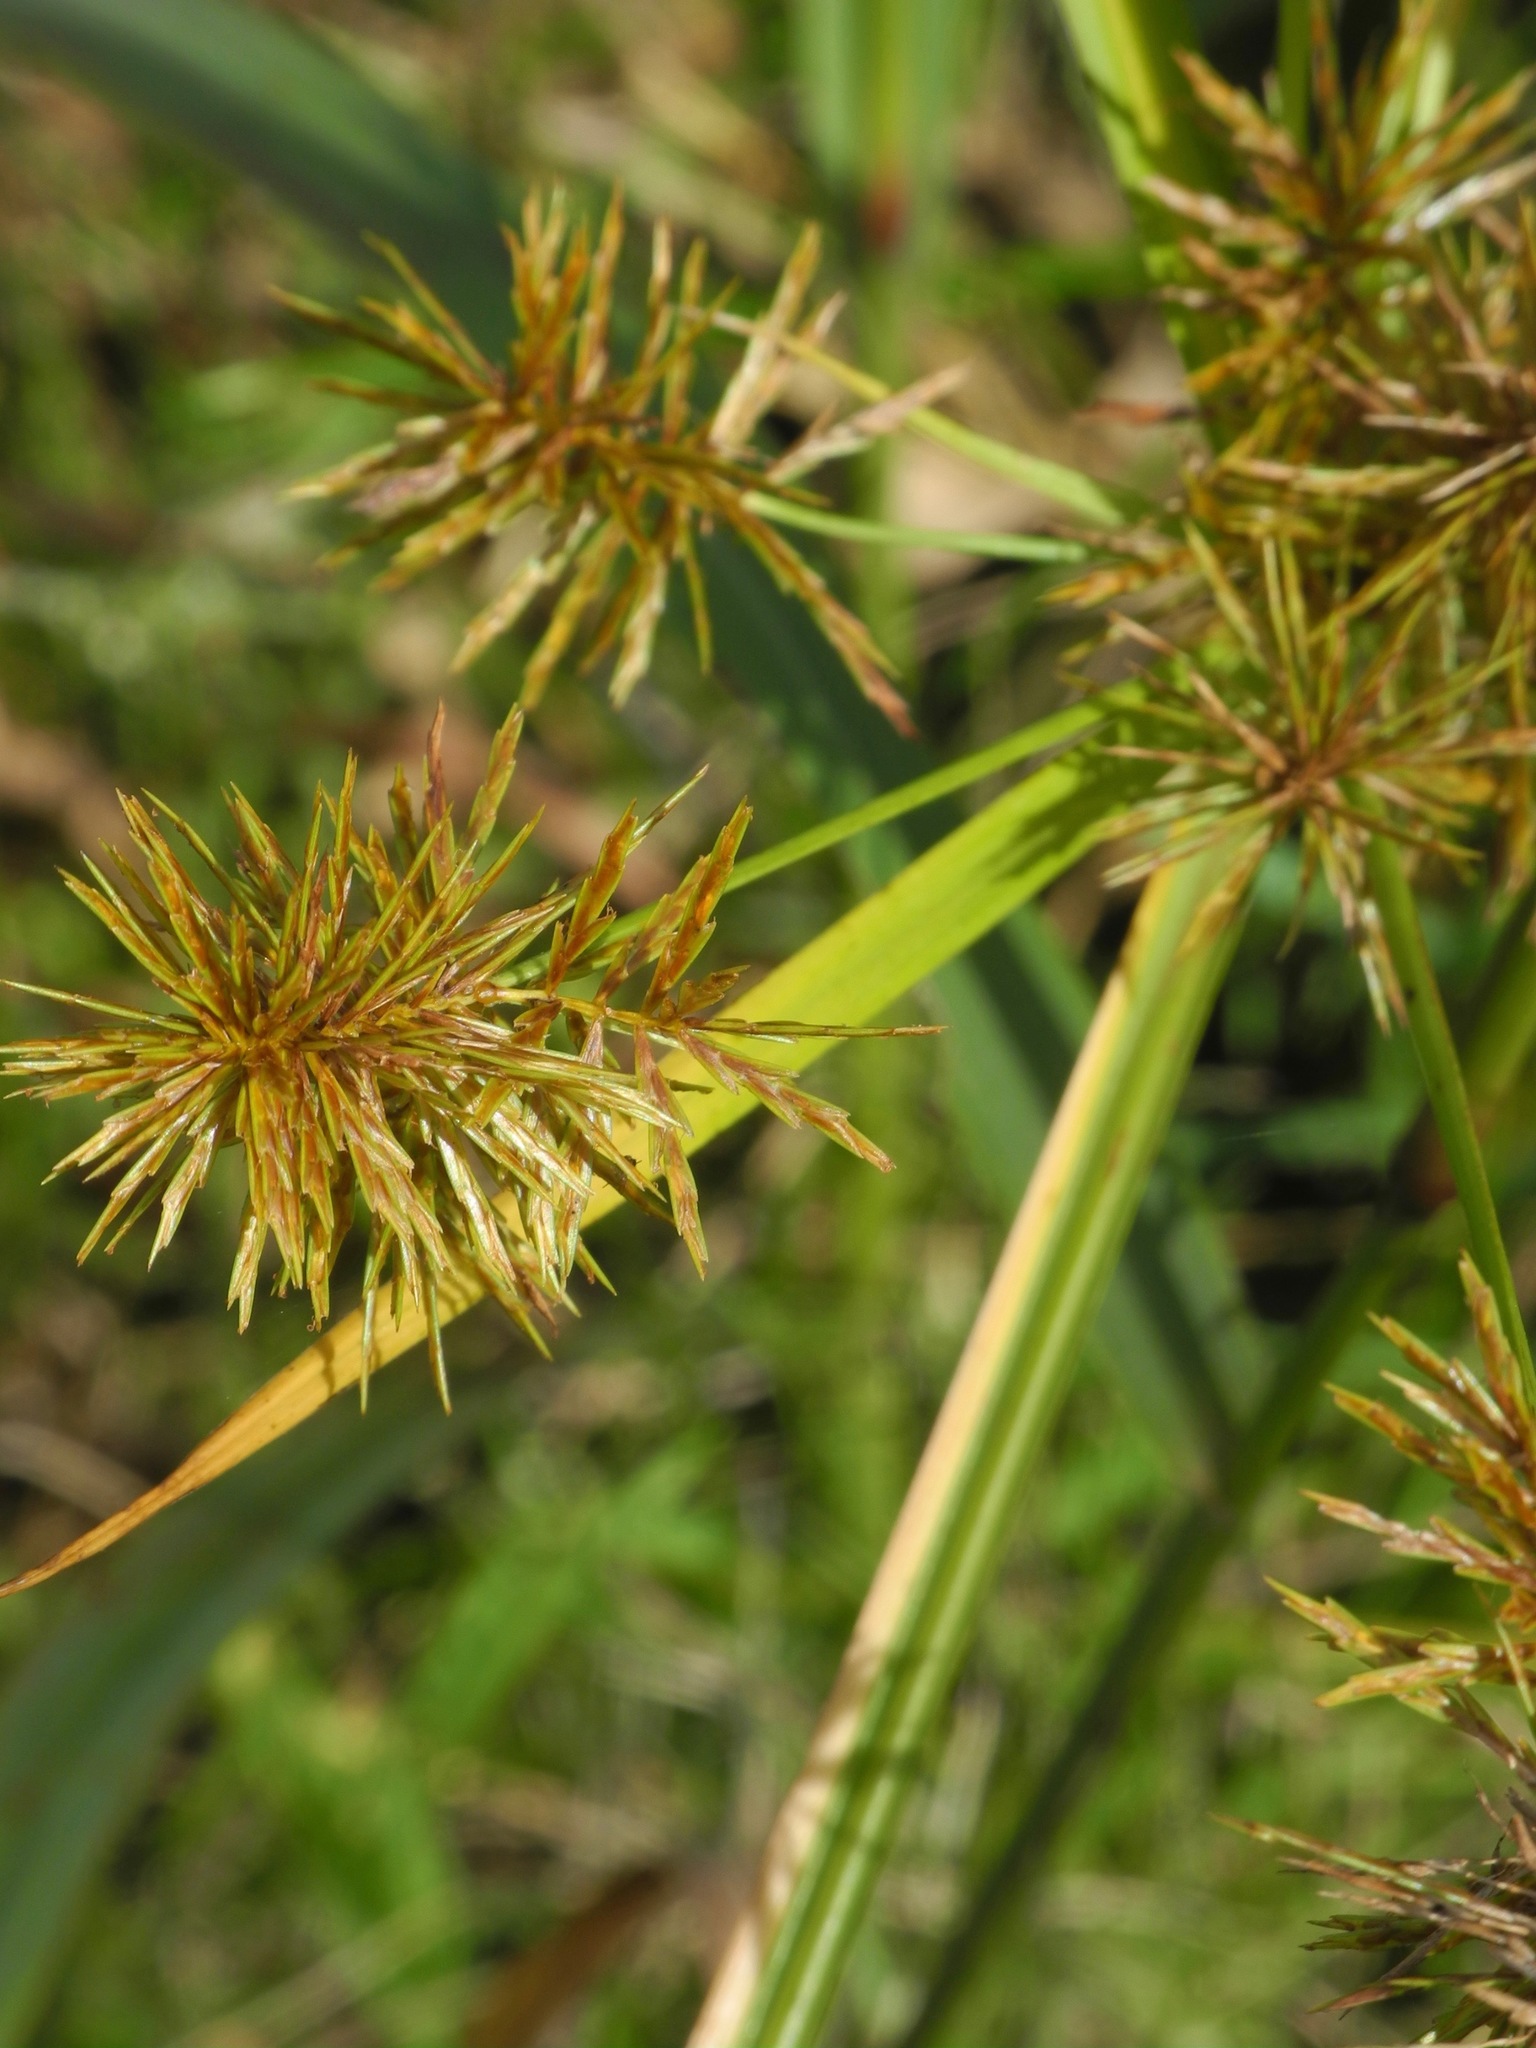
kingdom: Plantae
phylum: Tracheophyta
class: Liliopsida
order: Poales
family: Cyperaceae
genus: Cyperus
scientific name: Cyperus strigosus
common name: False nutsedge
